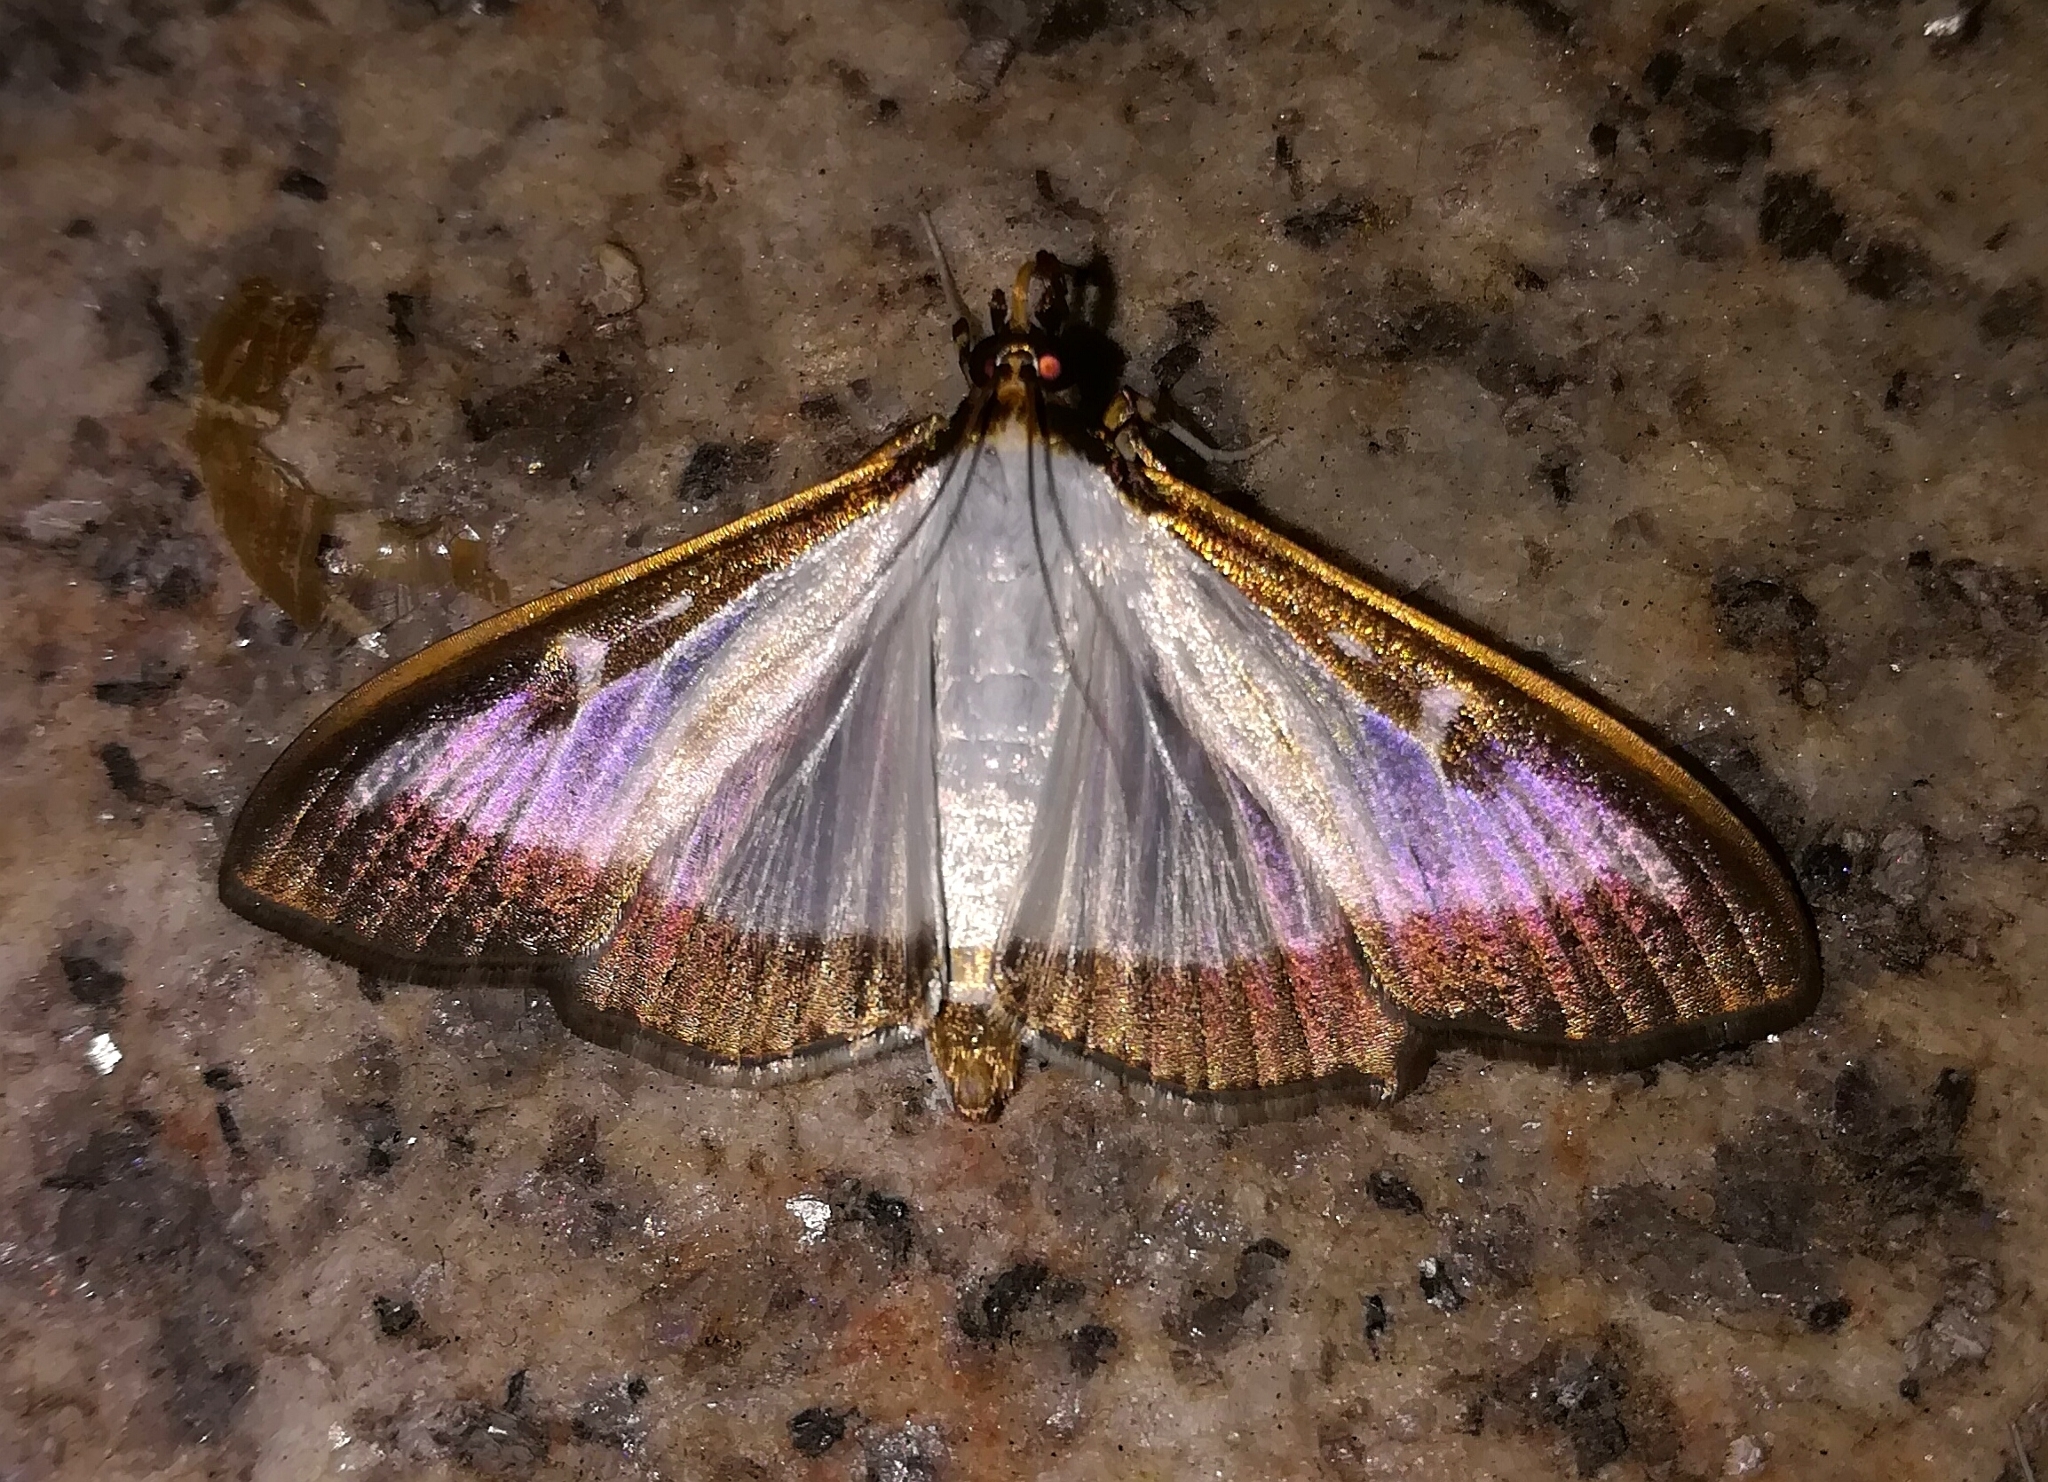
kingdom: Animalia
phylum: Arthropoda
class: Insecta
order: Lepidoptera
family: Crambidae
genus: Cydalima
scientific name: Cydalima perspectalis
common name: Box tree moth
